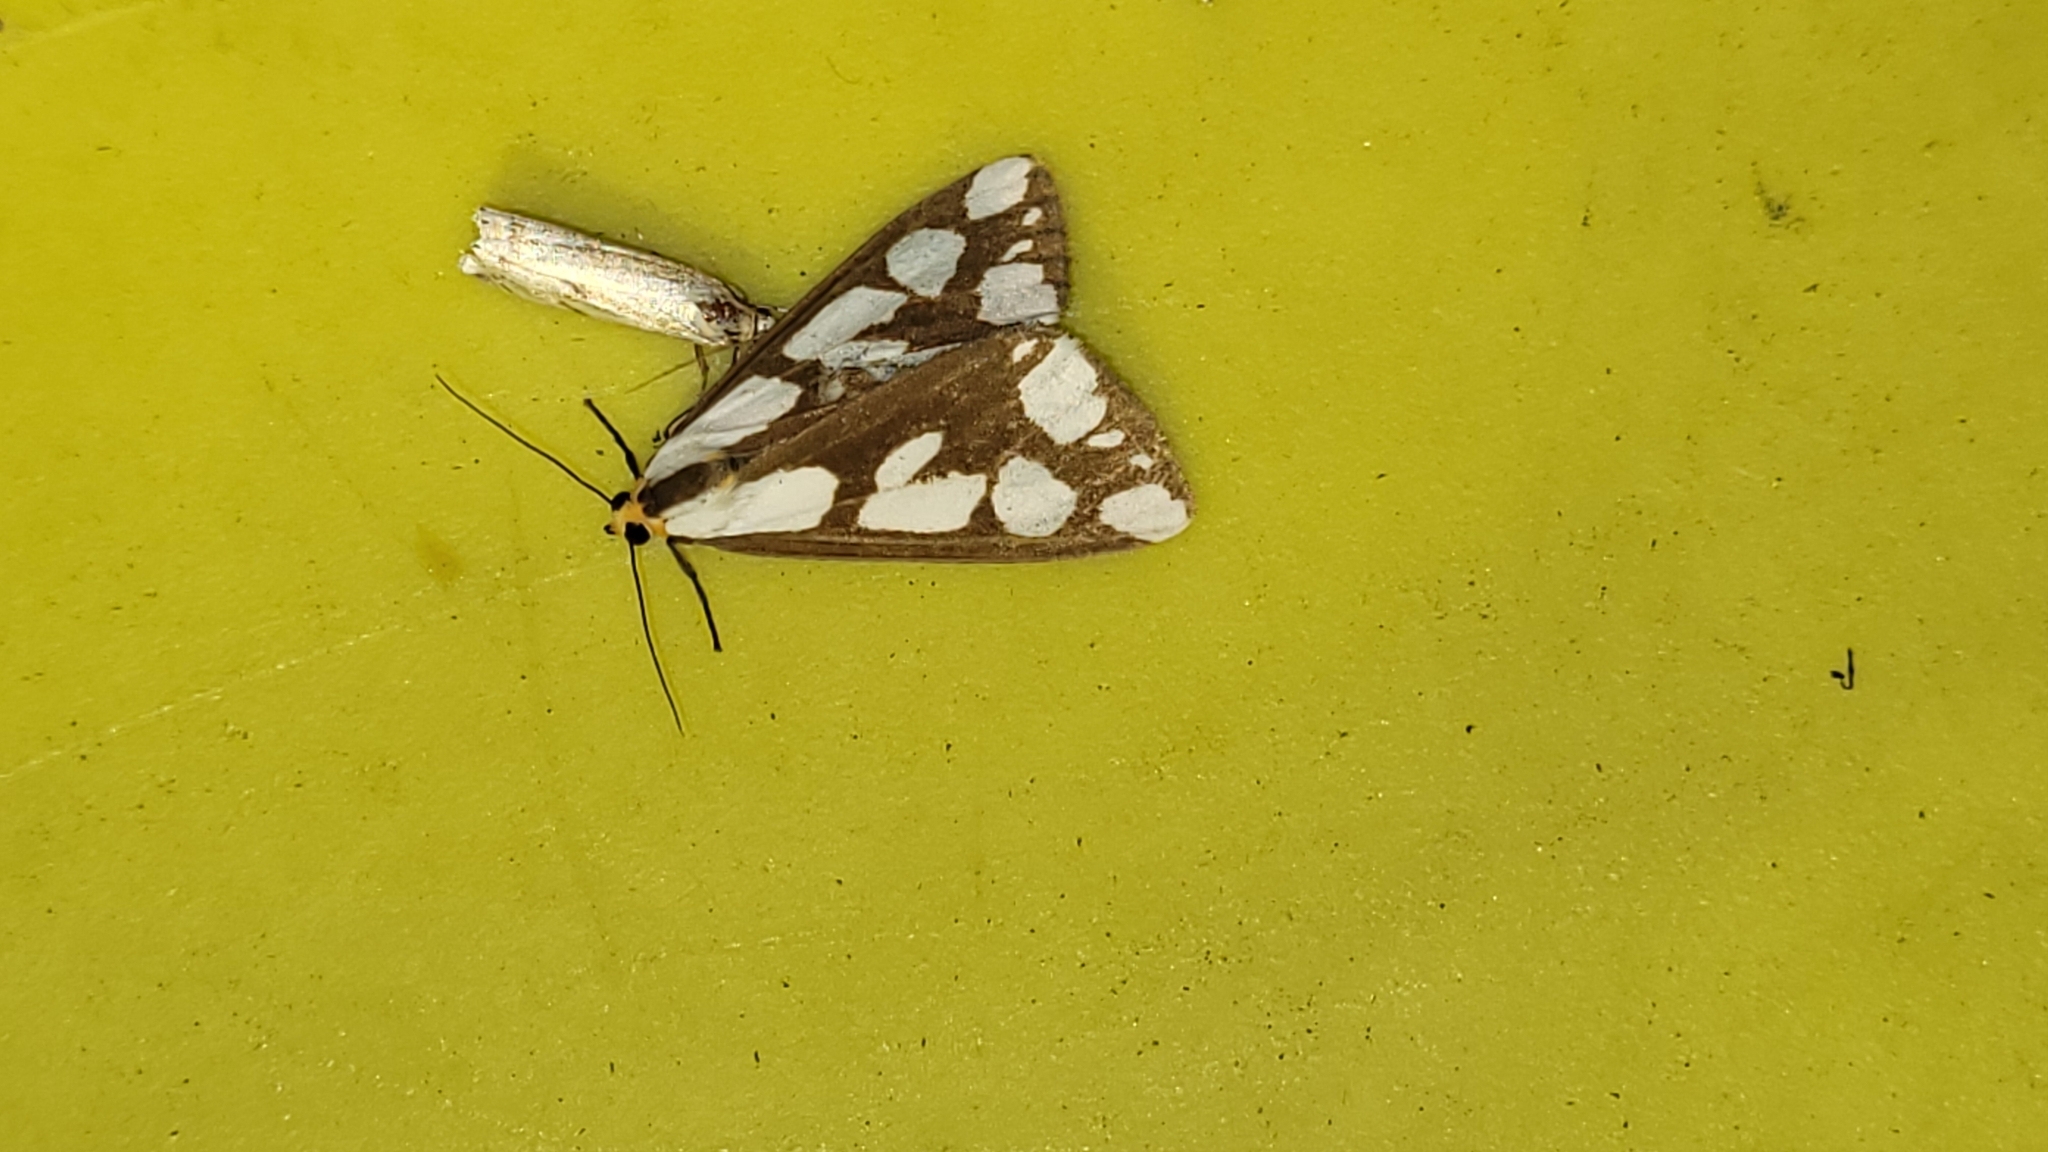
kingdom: Animalia
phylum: Arthropoda
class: Insecta
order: Lepidoptera
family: Erebidae
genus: Haploa
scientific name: Haploa confusa
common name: Confused haploa moth
